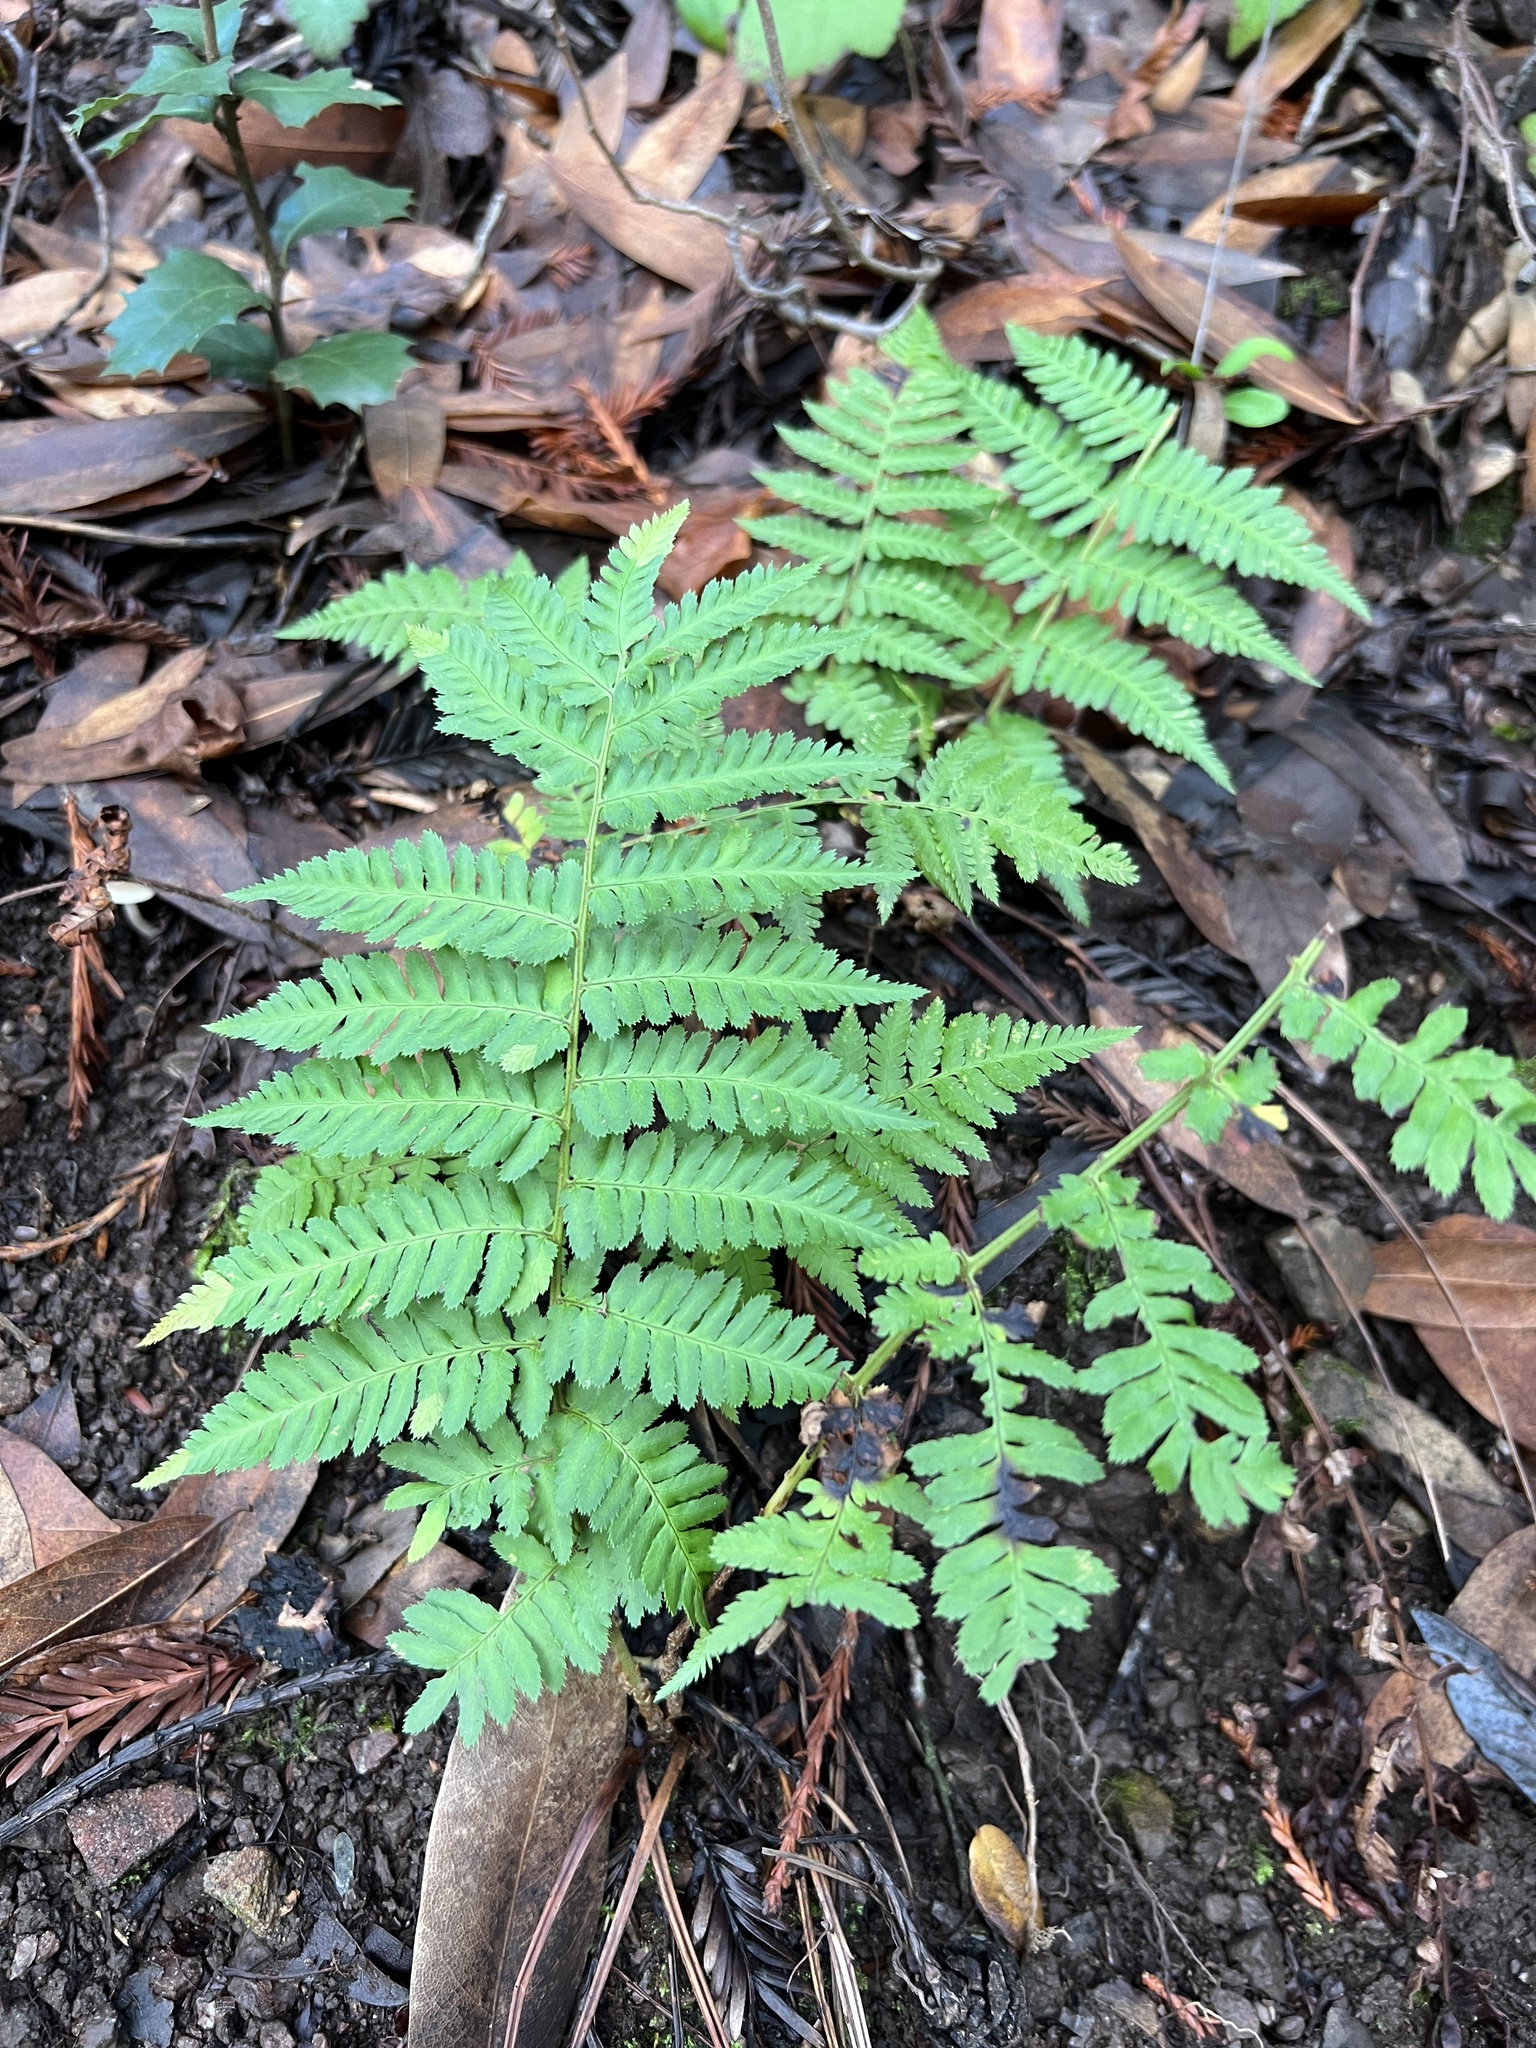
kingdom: Plantae
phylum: Tracheophyta
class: Polypodiopsida
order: Polypodiales
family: Dryopteridaceae
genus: Dryopteris
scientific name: Dryopteris arguta
